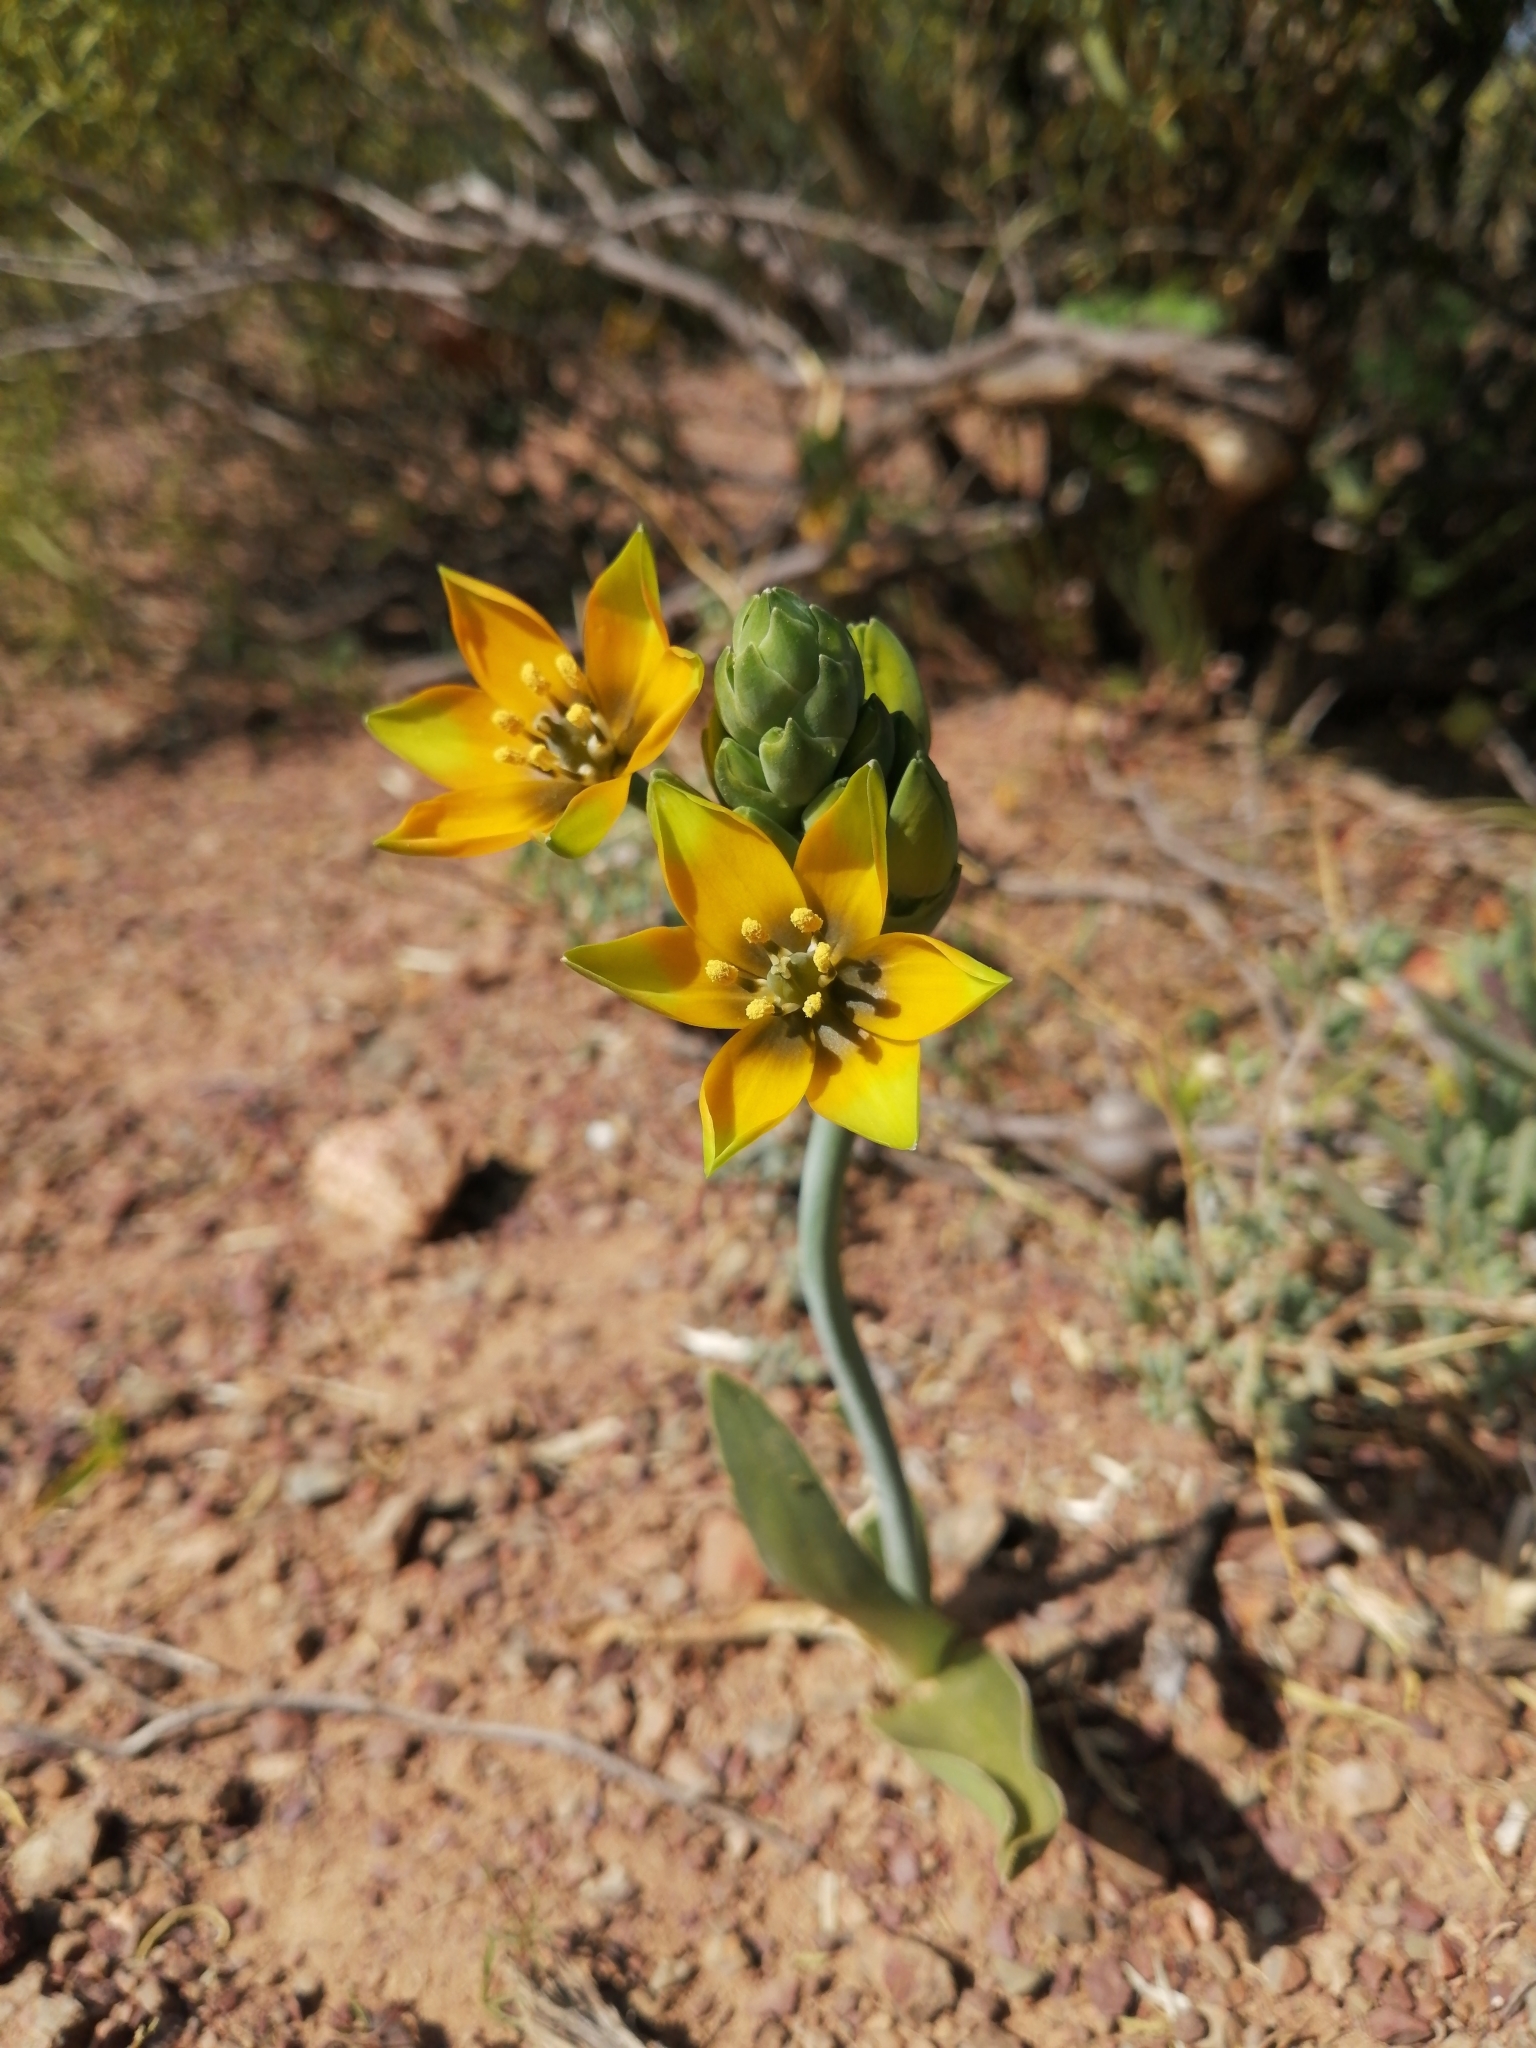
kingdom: Plantae
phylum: Tracheophyta
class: Liliopsida
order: Asparagales
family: Asparagaceae
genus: Ornithogalum
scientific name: Ornithogalum dubium
